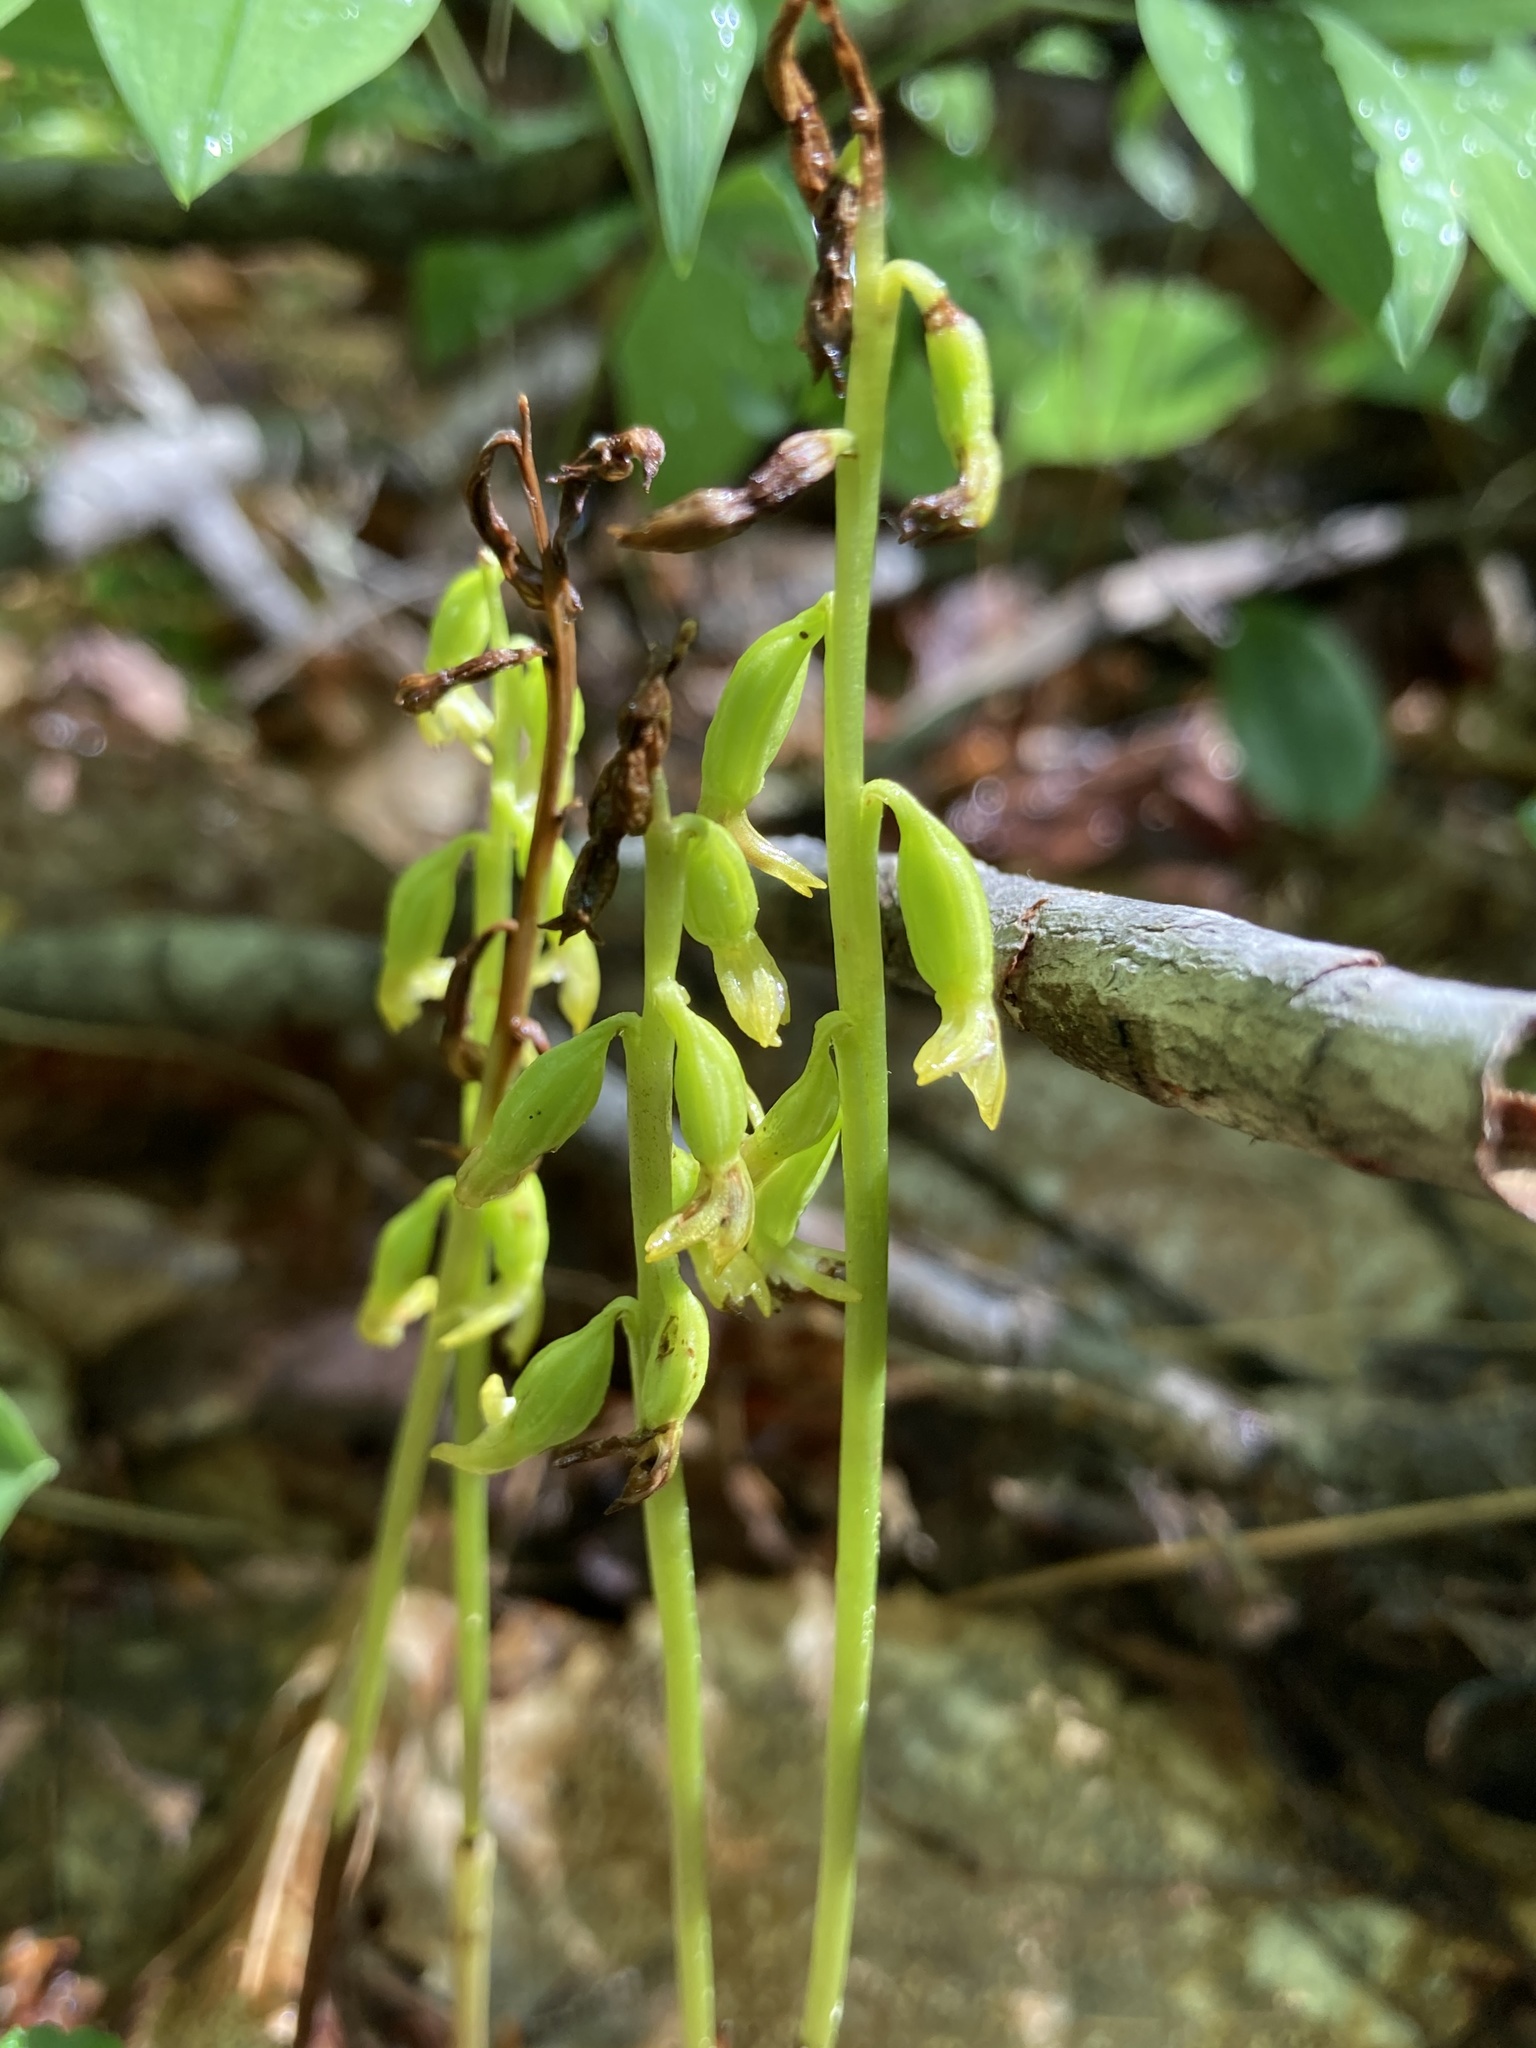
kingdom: Plantae
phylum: Tracheophyta
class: Liliopsida
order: Asparagales
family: Orchidaceae
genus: Corallorhiza
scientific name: Corallorhiza trifida
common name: Yellow coralroot
